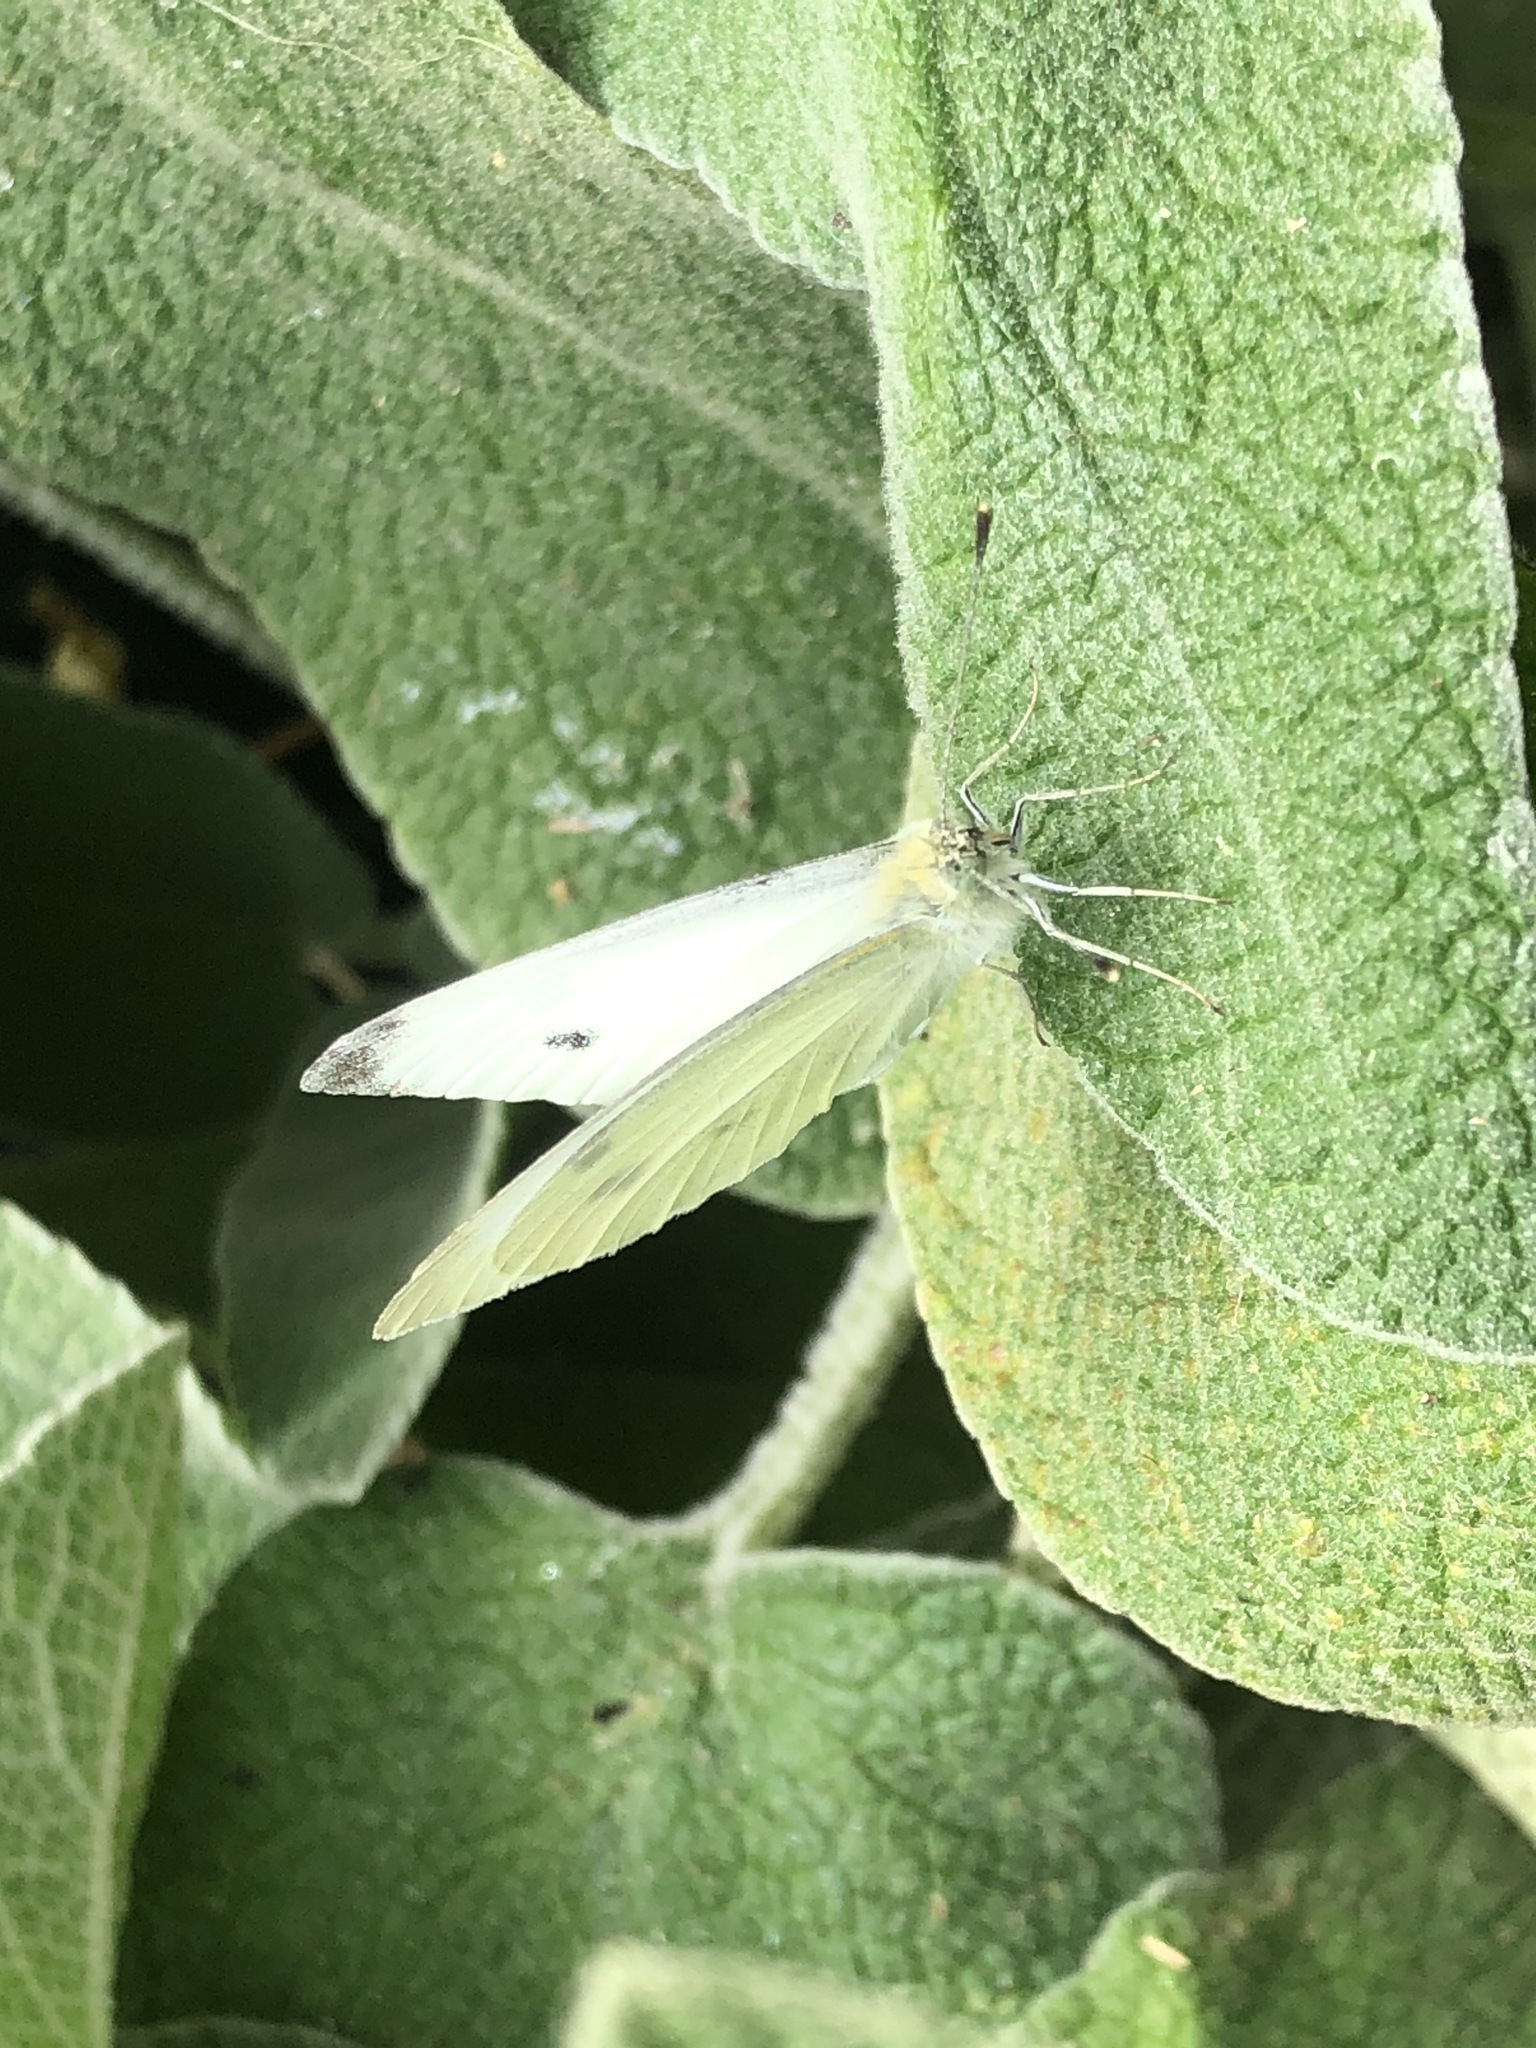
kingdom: Animalia
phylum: Arthropoda
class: Insecta
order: Lepidoptera
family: Pieridae
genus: Pieris
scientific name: Pieris rapae
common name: Small white
